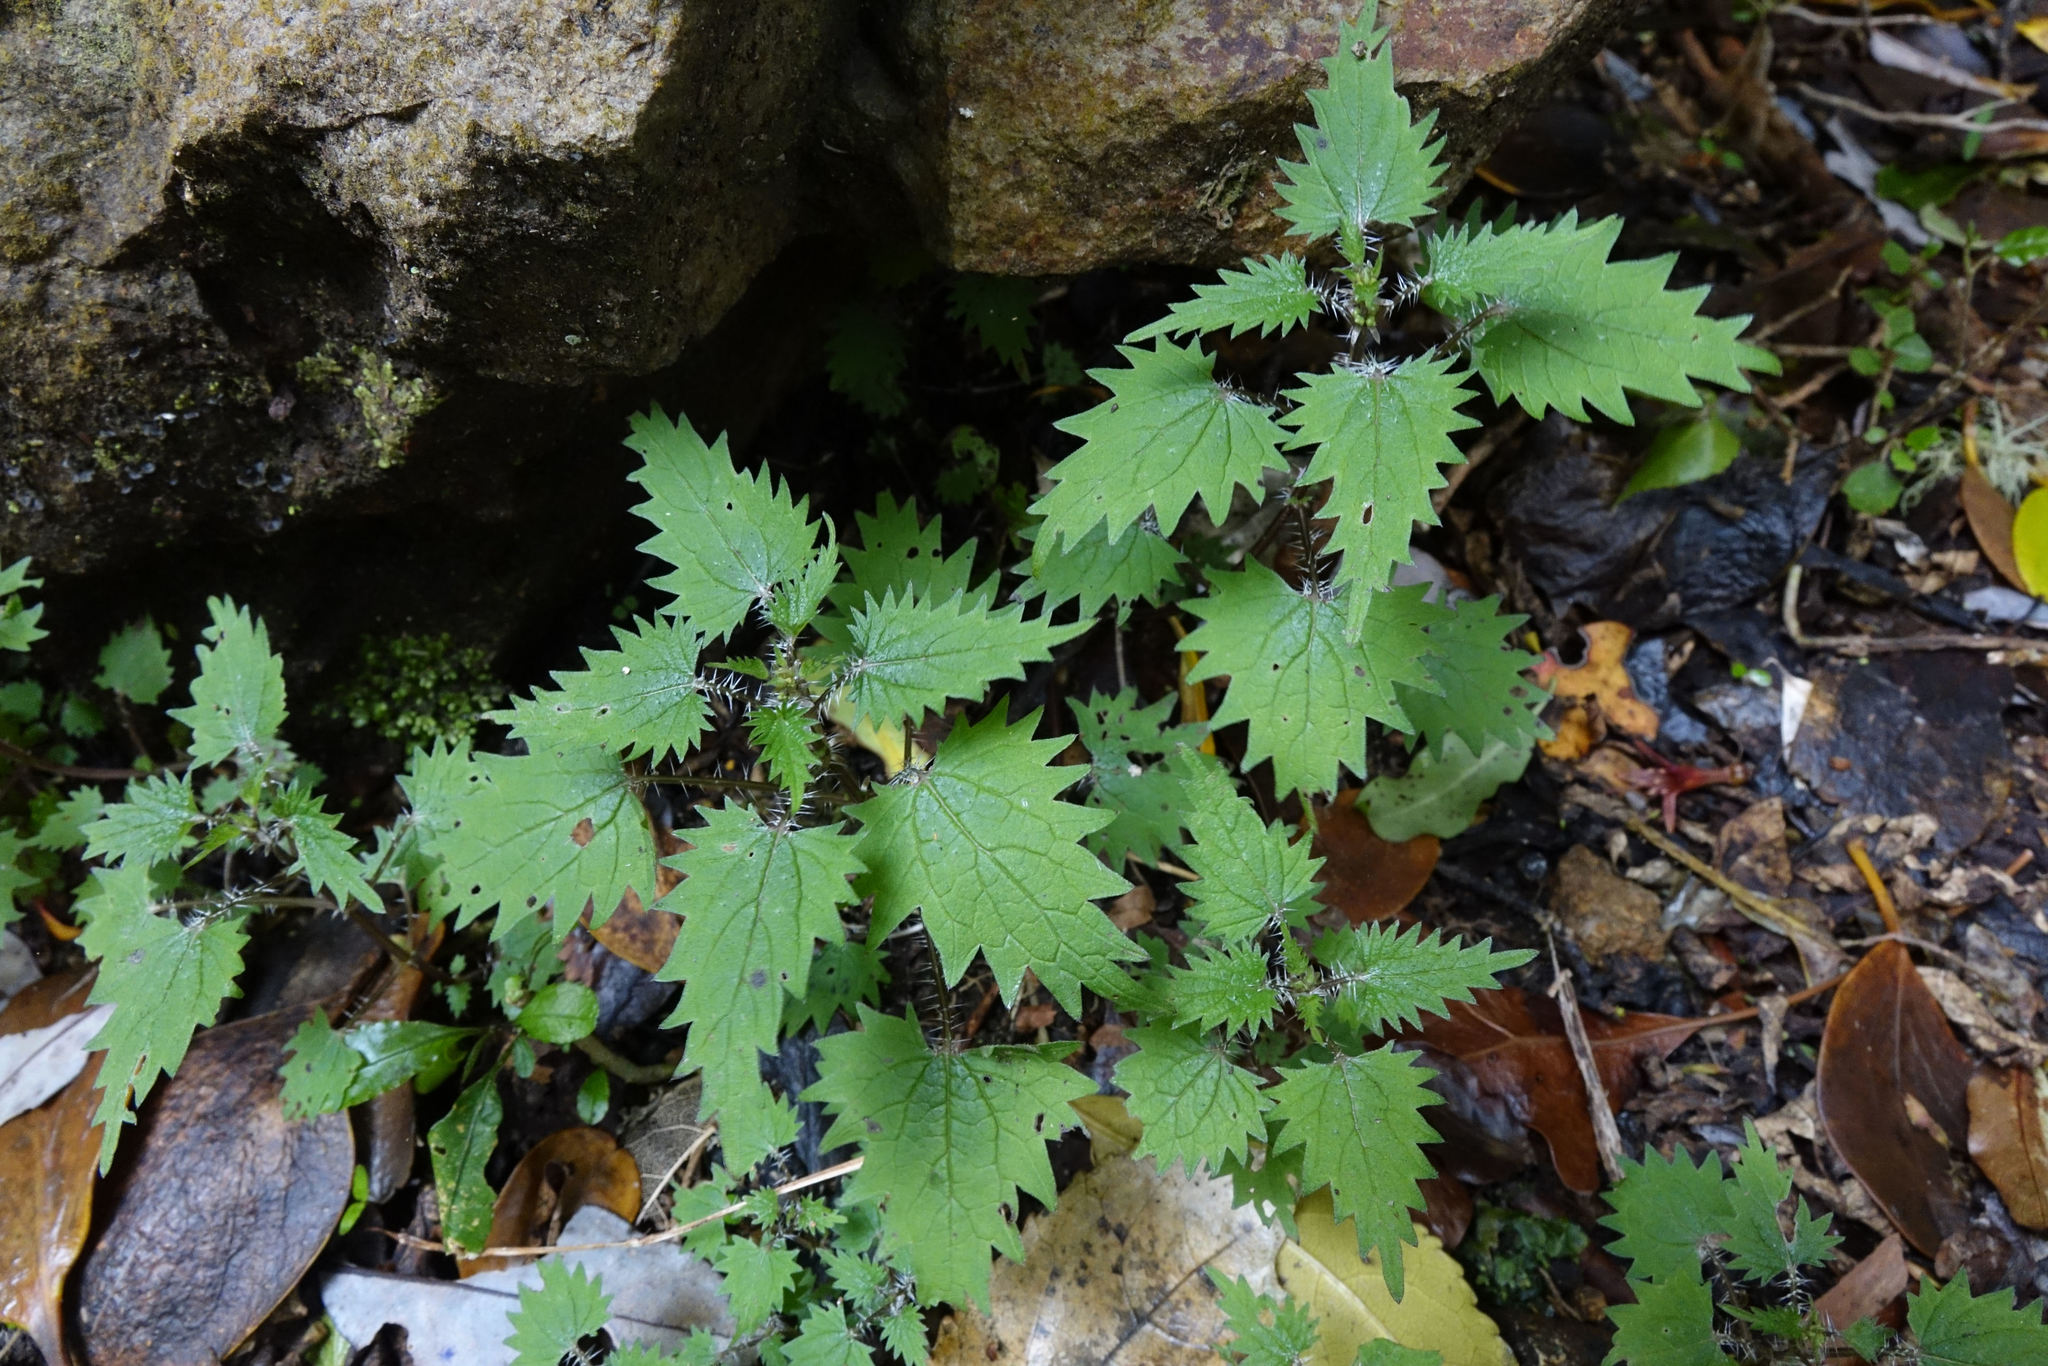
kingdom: Plantae
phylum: Tracheophyta
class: Magnoliopsida
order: Rosales
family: Urticaceae
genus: Urtica
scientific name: Urtica sykesii
